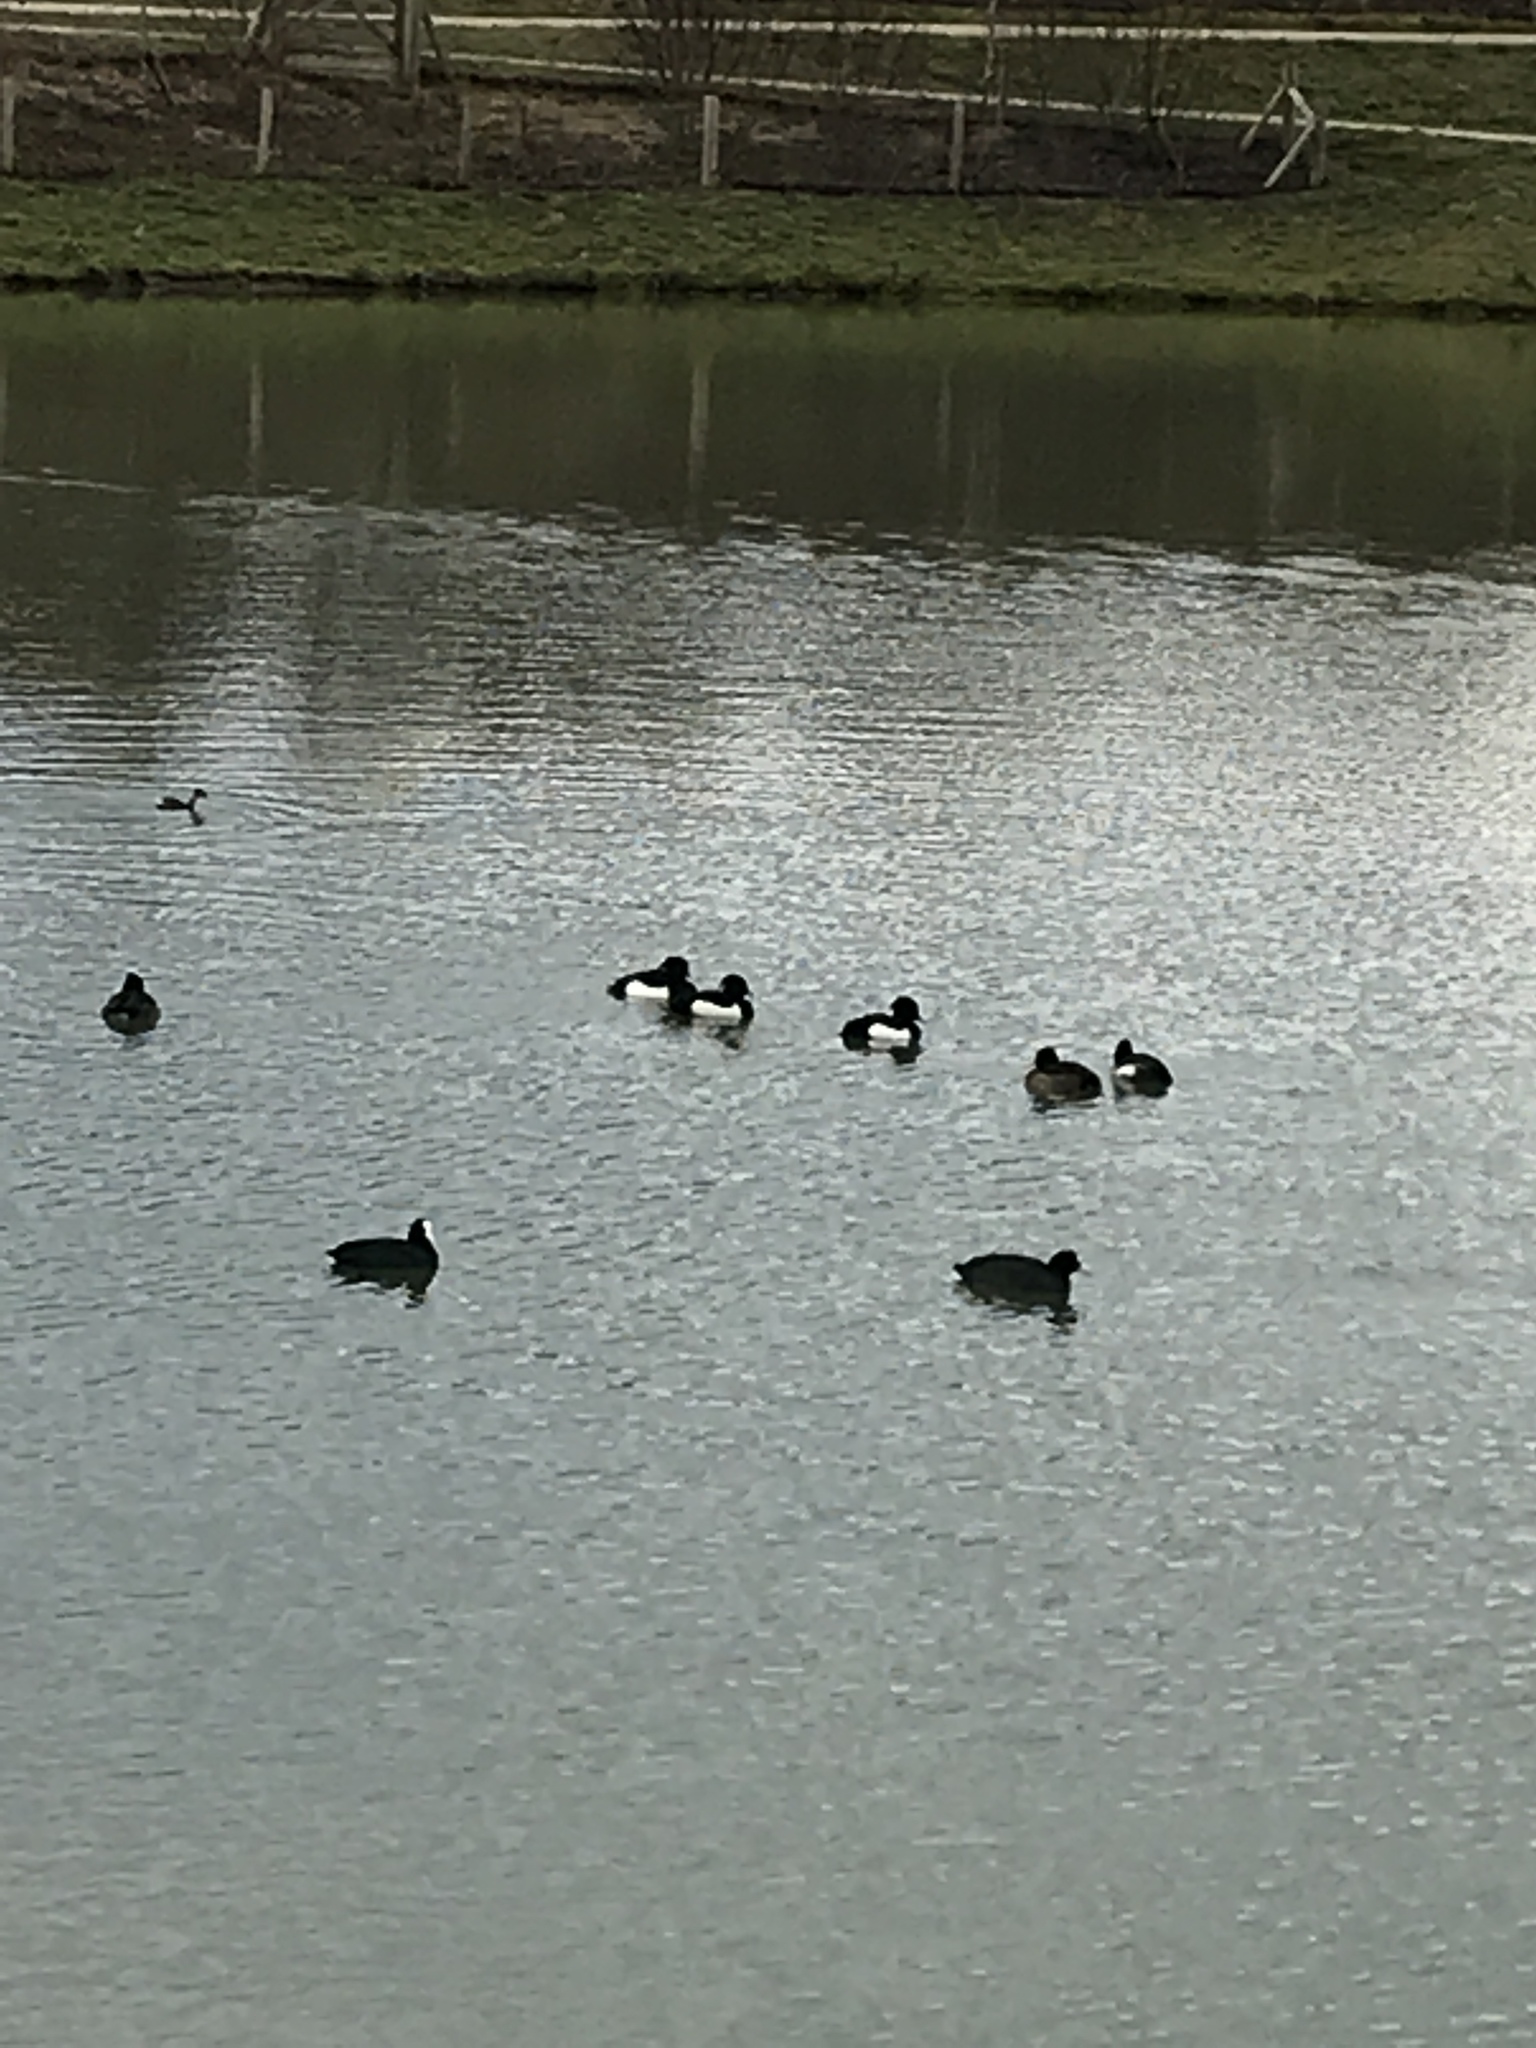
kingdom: Animalia
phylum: Chordata
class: Aves
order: Podicipediformes
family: Podicipedidae
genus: Tachybaptus
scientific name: Tachybaptus ruficollis
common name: Little grebe
